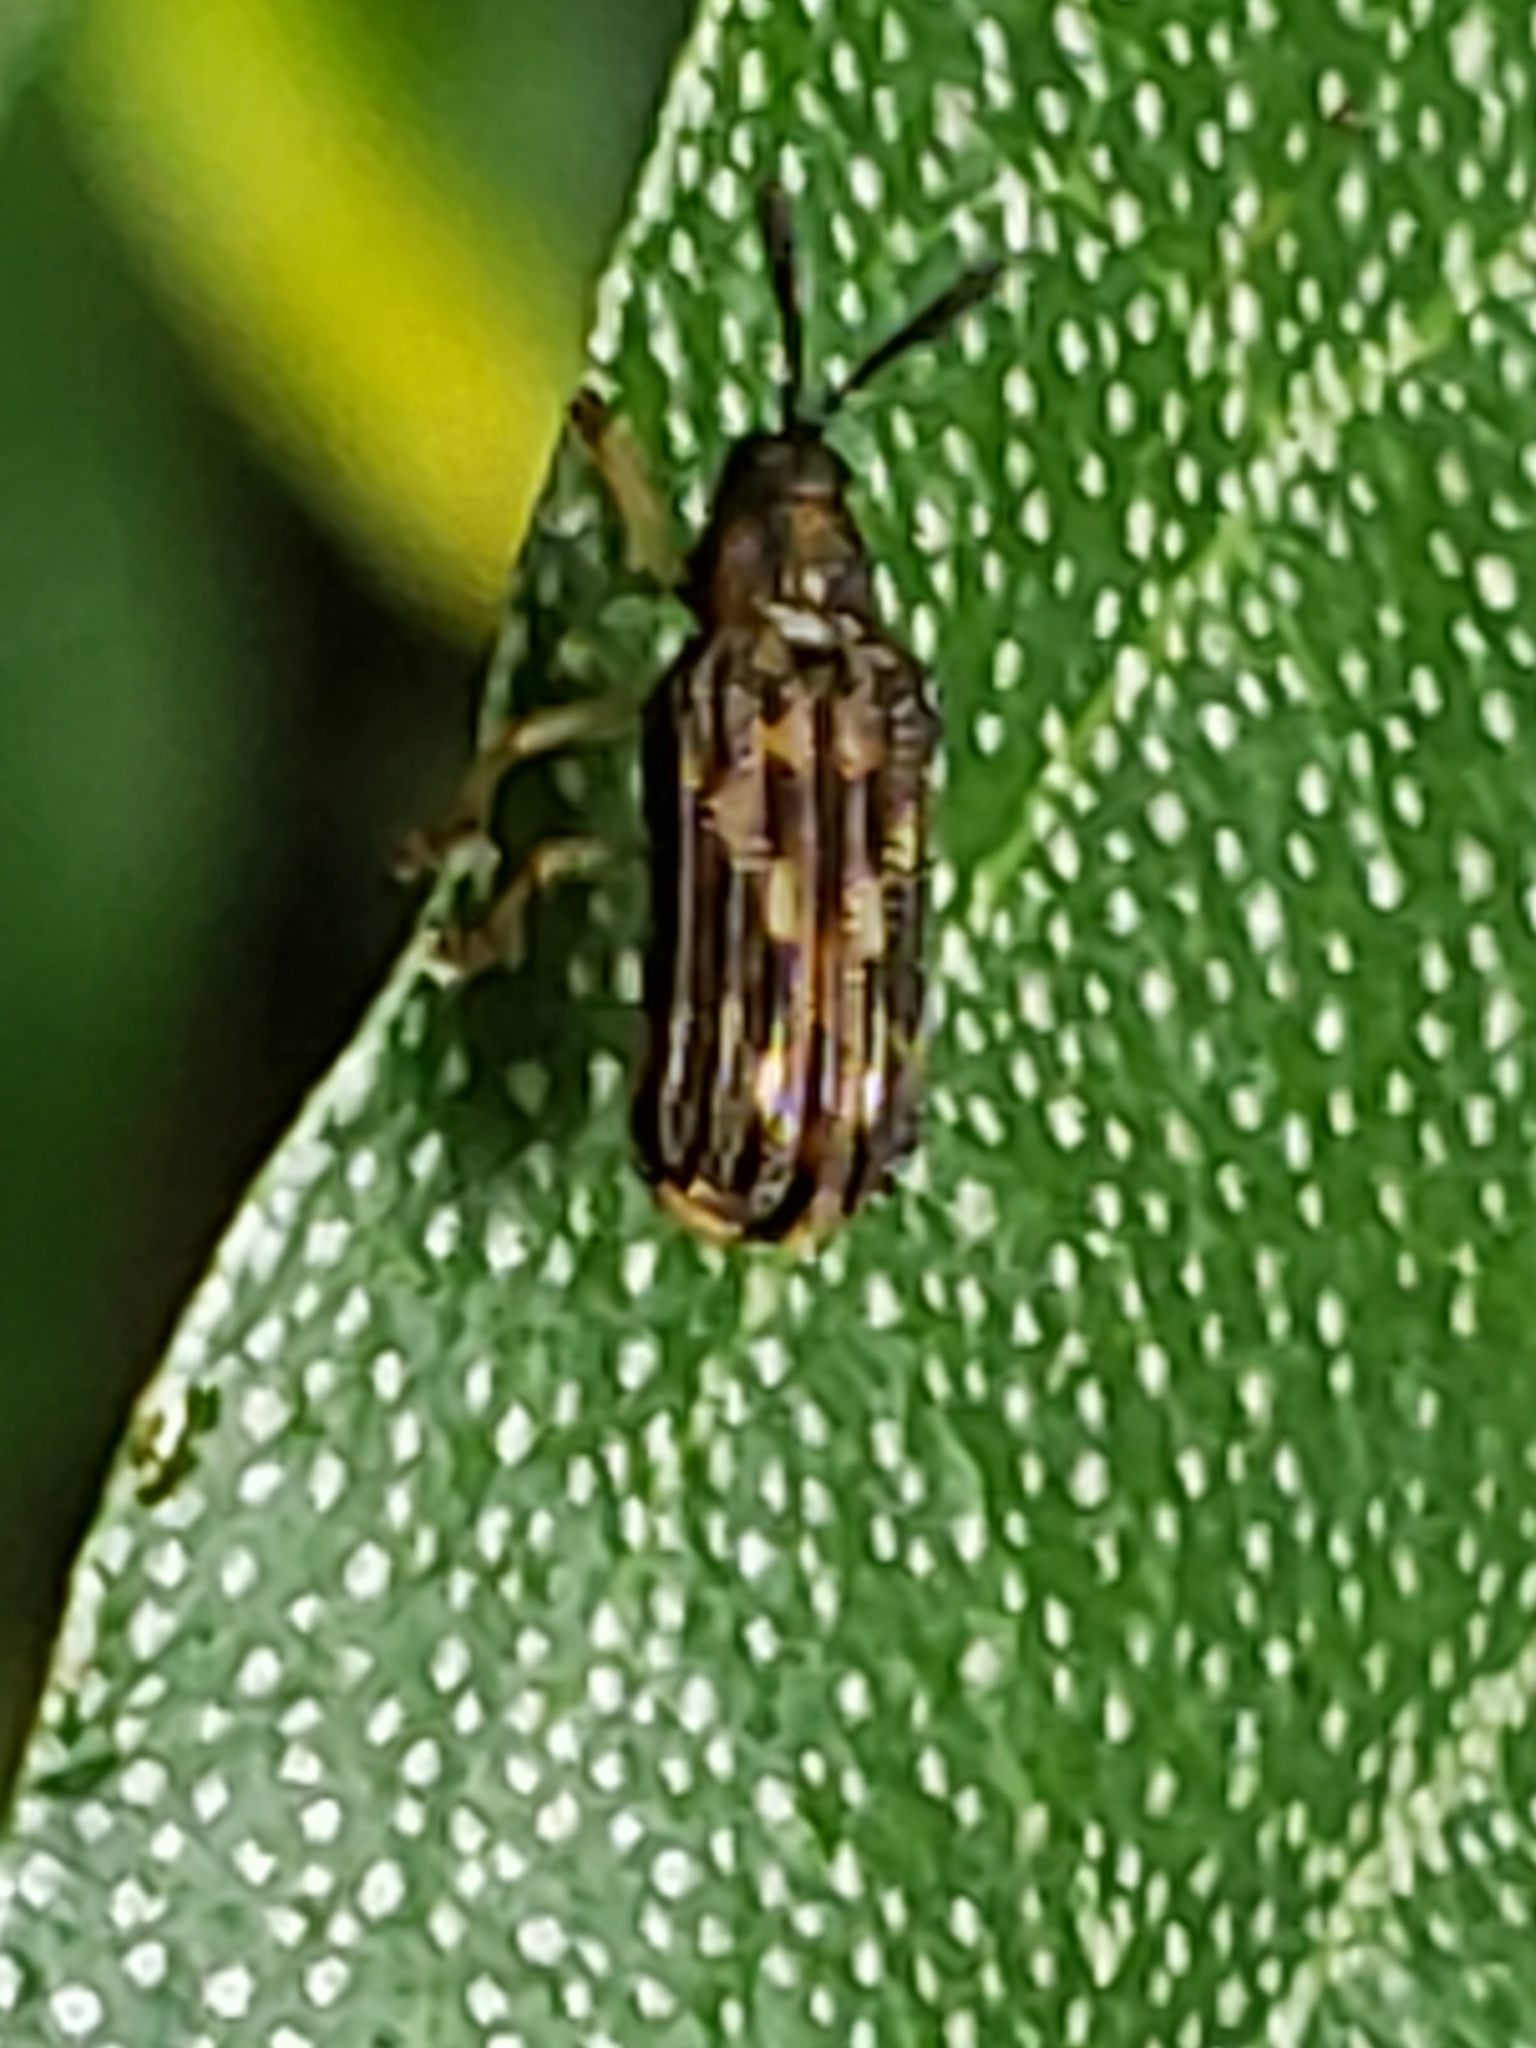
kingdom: Animalia
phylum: Arthropoda
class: Insecta
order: Coleoptera
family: Chrysomelidae
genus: Sumitrosis
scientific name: Sumitrosis inaequalis
